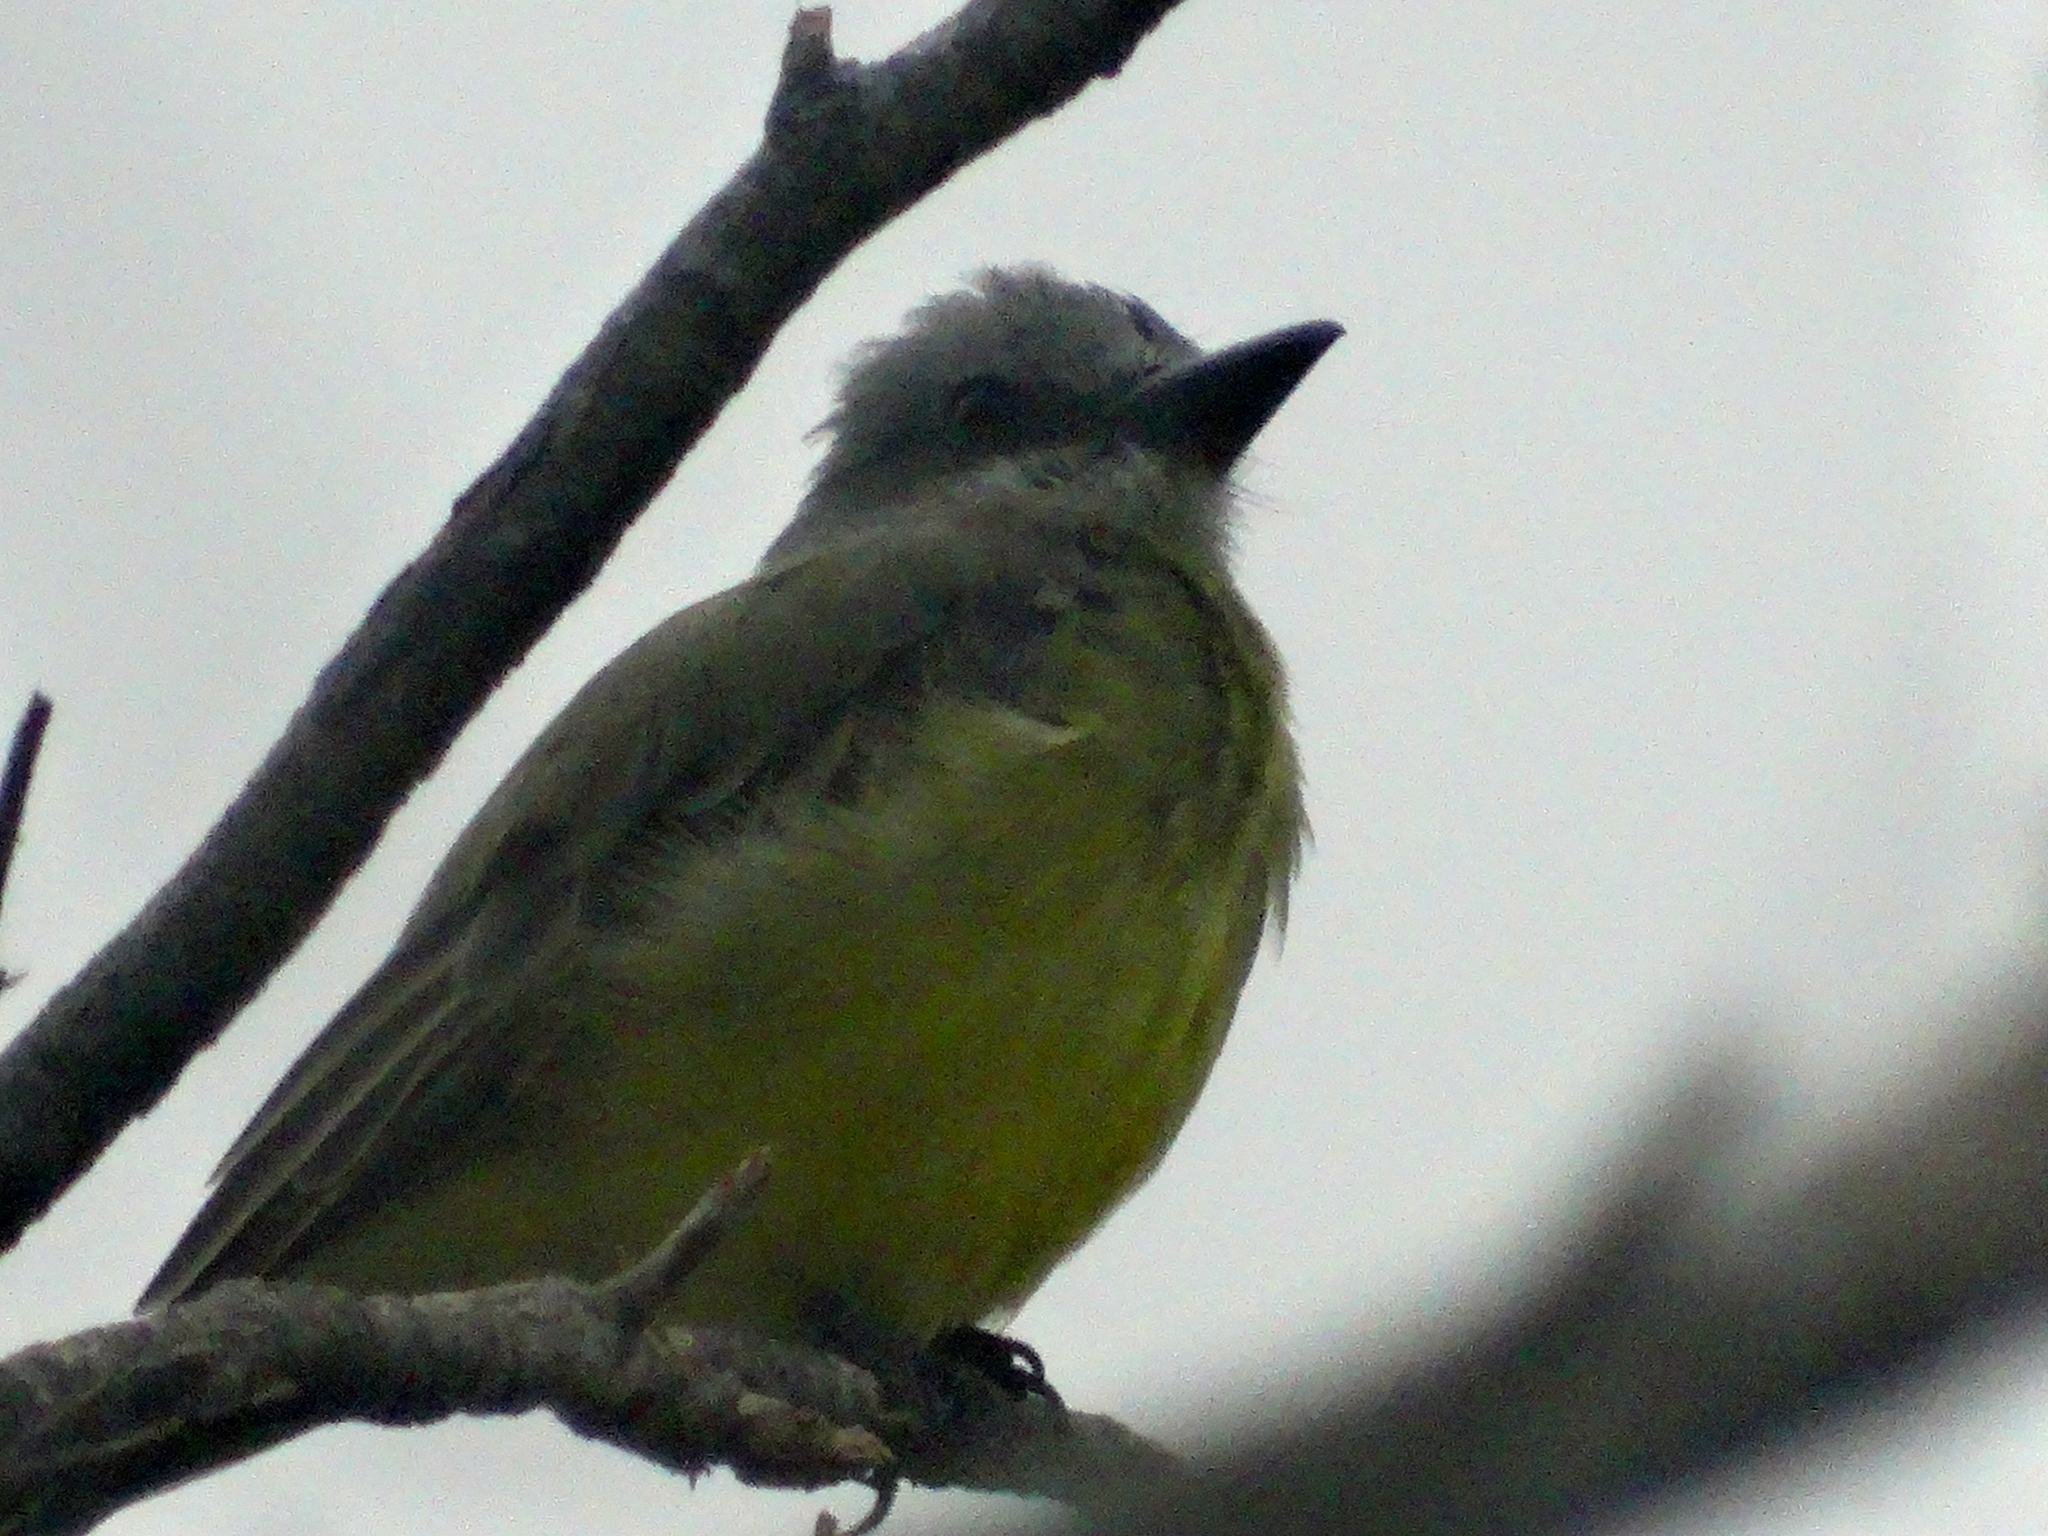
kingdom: Animalia
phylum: Chordata
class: Aves
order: Passeriformes
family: Tyrannidae
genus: Tyrannus
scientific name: Tyrannus melancholicus
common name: Tropical kingbird
